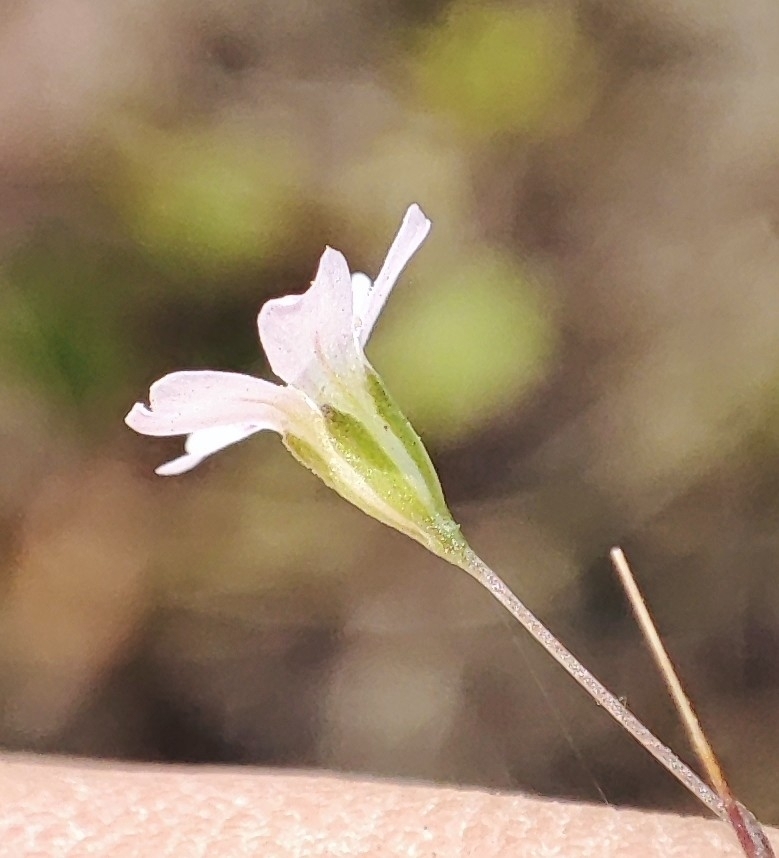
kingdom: Plantae
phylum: Tracheophyta
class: Magnoliopsida
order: Caryophyllales
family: Caryophyllaceae
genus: Psammophiliella
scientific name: Psammophiliella muralis
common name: Cushion baby's-breath
